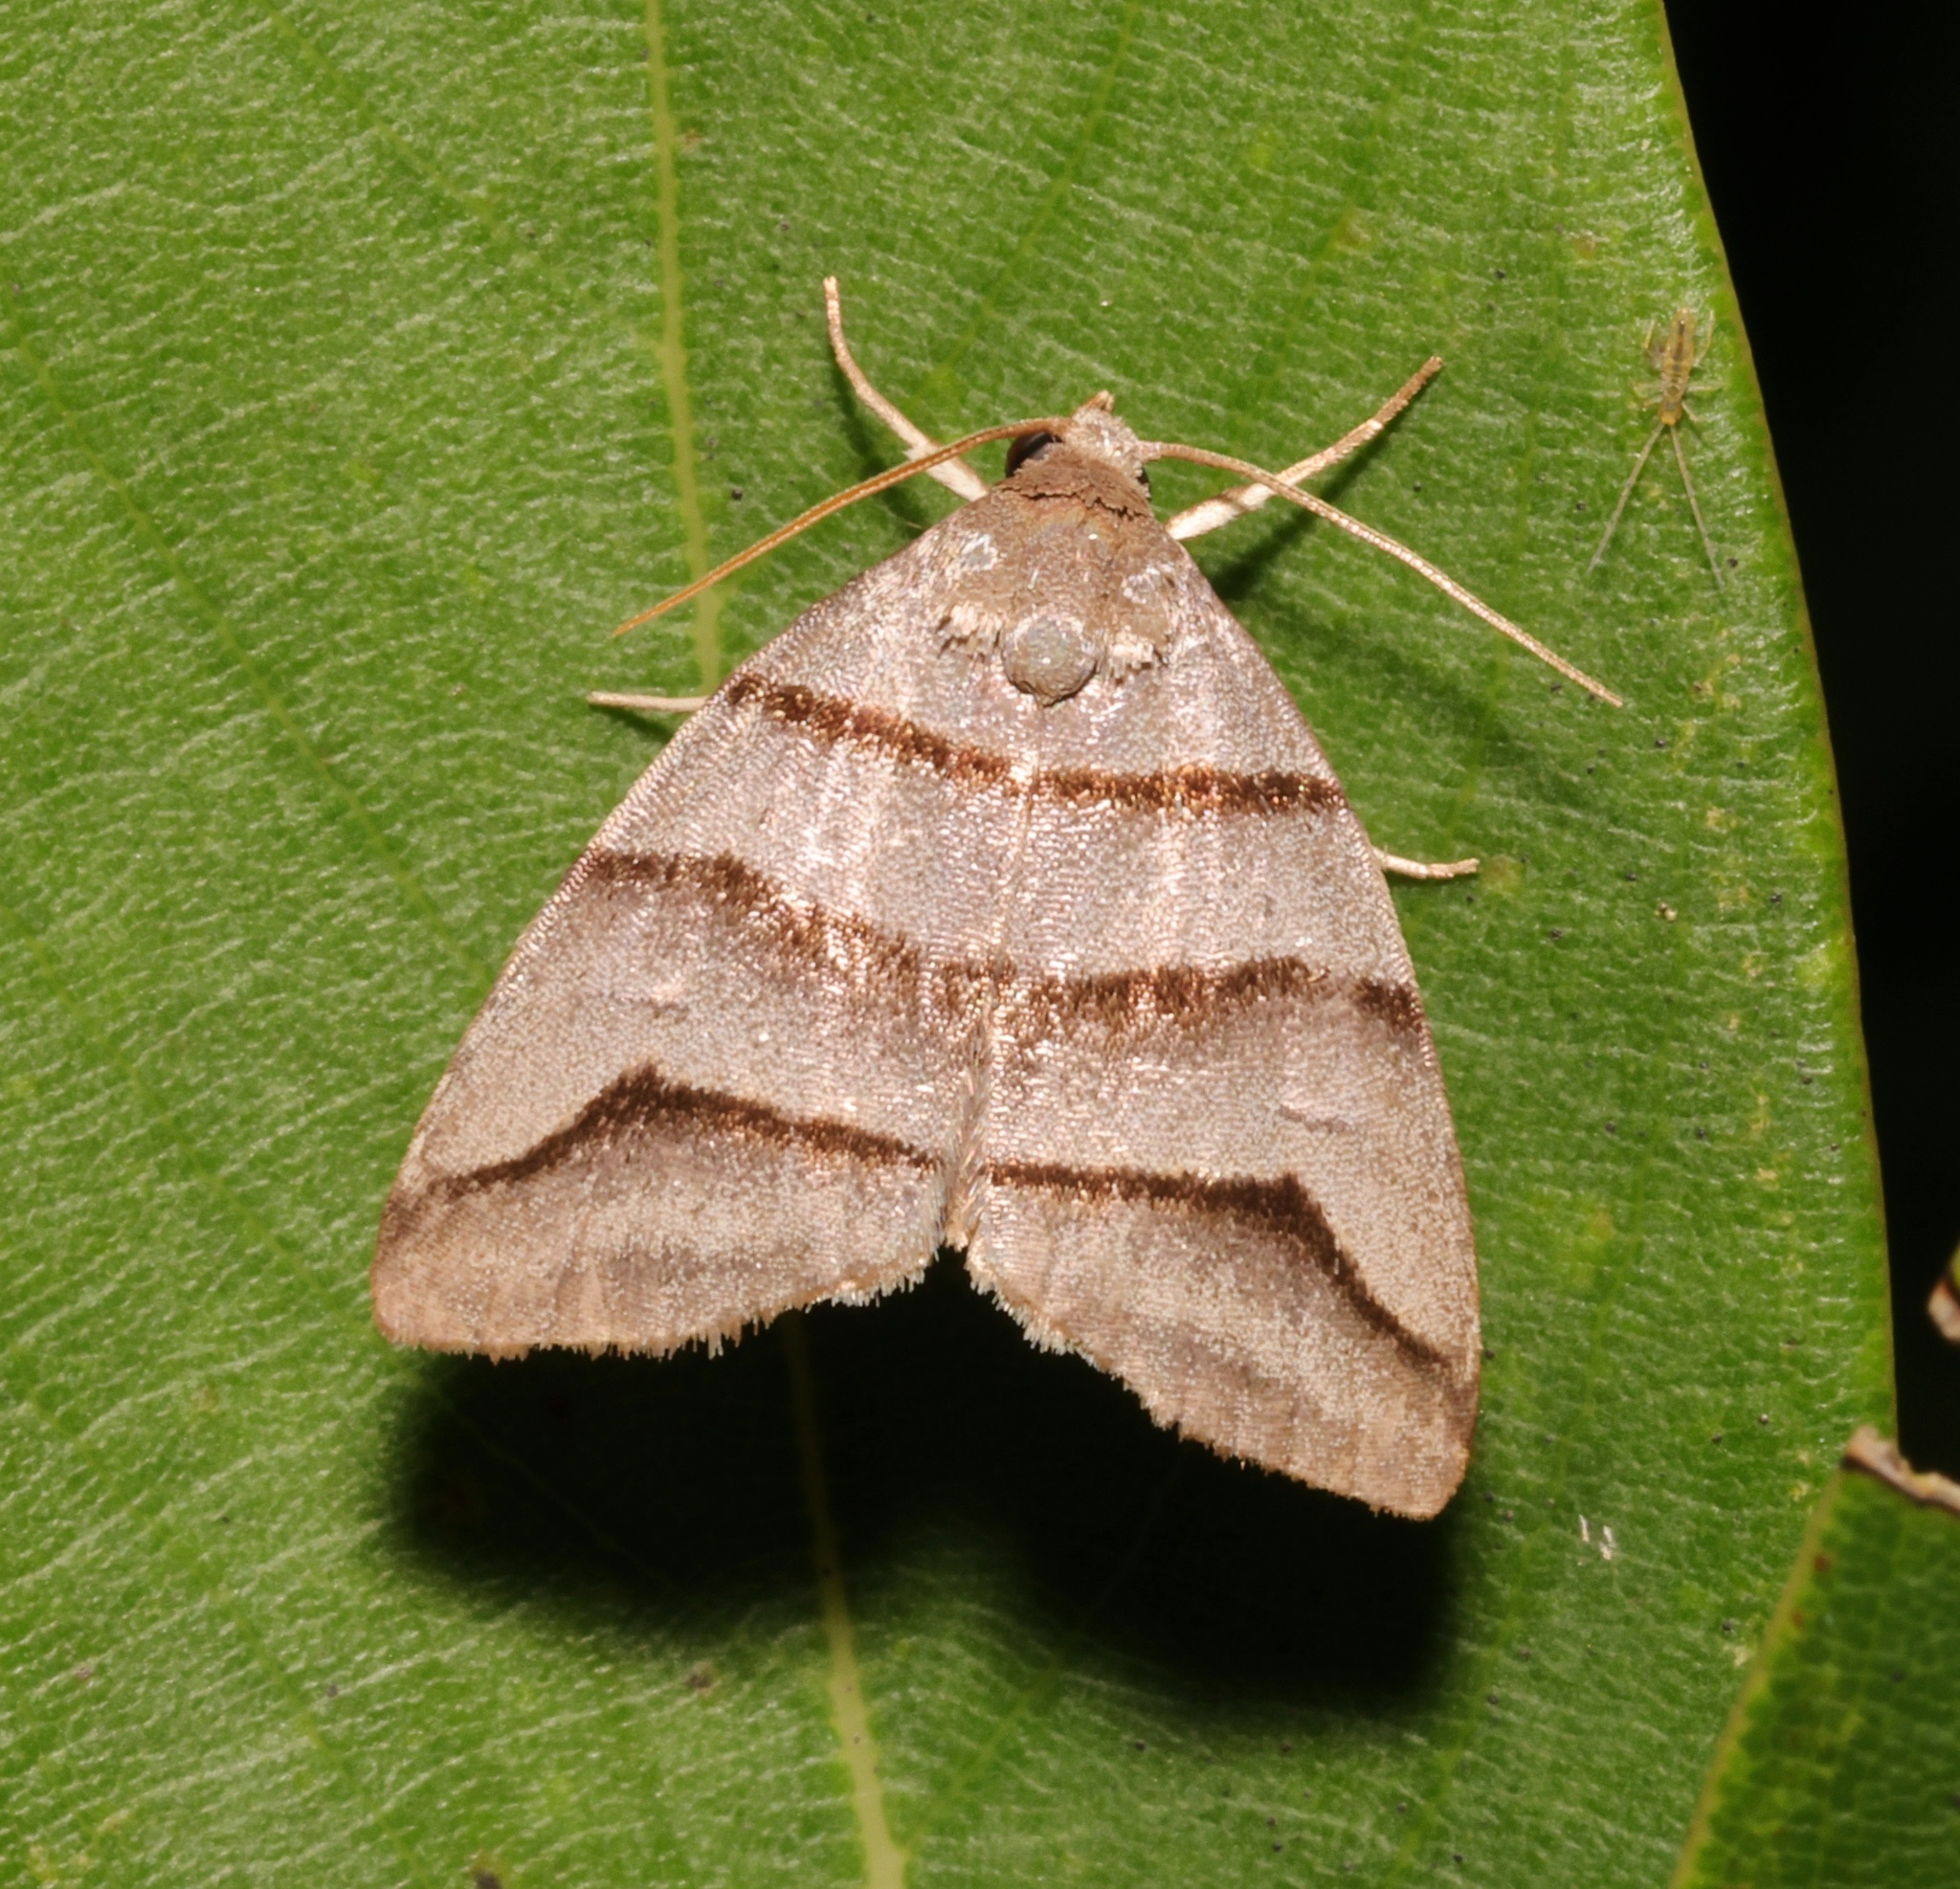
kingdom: Animalia
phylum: Arthropoda
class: Insecta
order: Lepidoptera
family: Noctuidae
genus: Flammona
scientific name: Flammona trilineata
